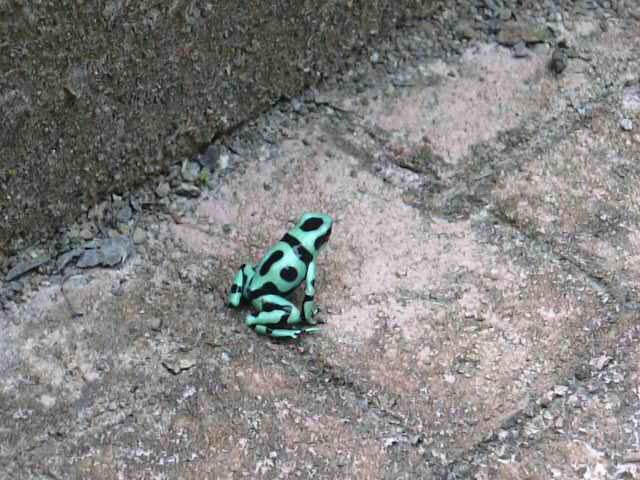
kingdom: Animalia
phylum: Chordata
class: Amphibia
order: Anura
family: Dendrobatidae
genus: Dendrobates
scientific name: Dendrobates auratus
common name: Green and black poison dart frog
